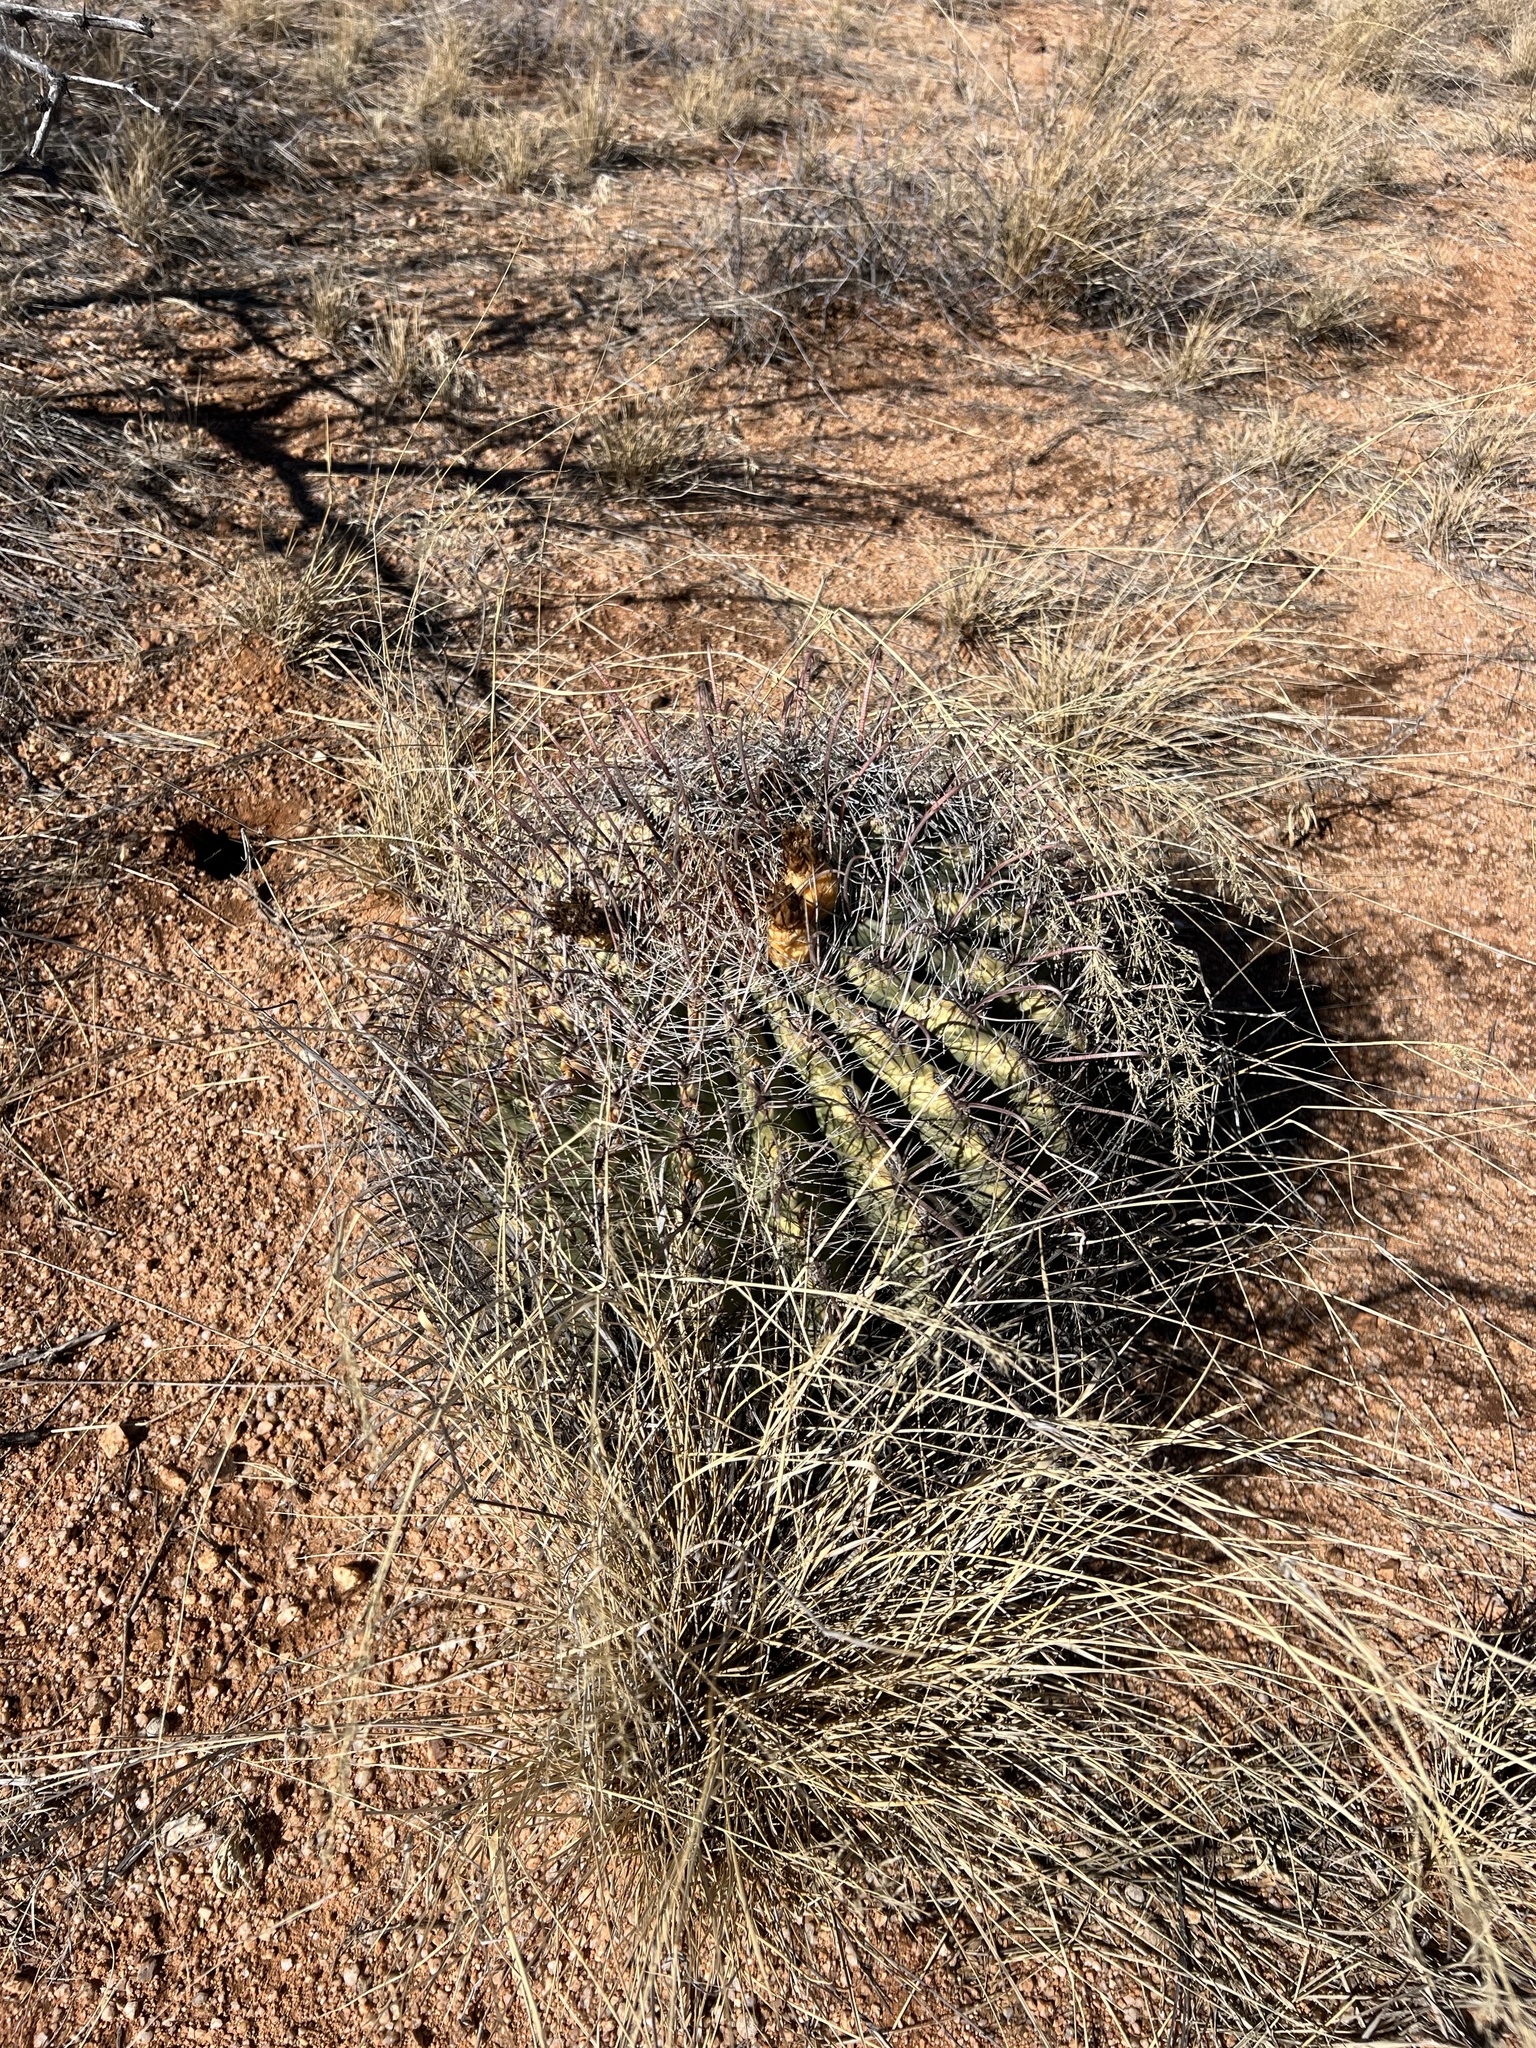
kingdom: Plantae
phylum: Tracheophyta
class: Magnoliopsida
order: Caryophyllales
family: Cactaceae
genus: Ferocactus
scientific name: Ferocactus wislizeni
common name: Candy barrel cactus
